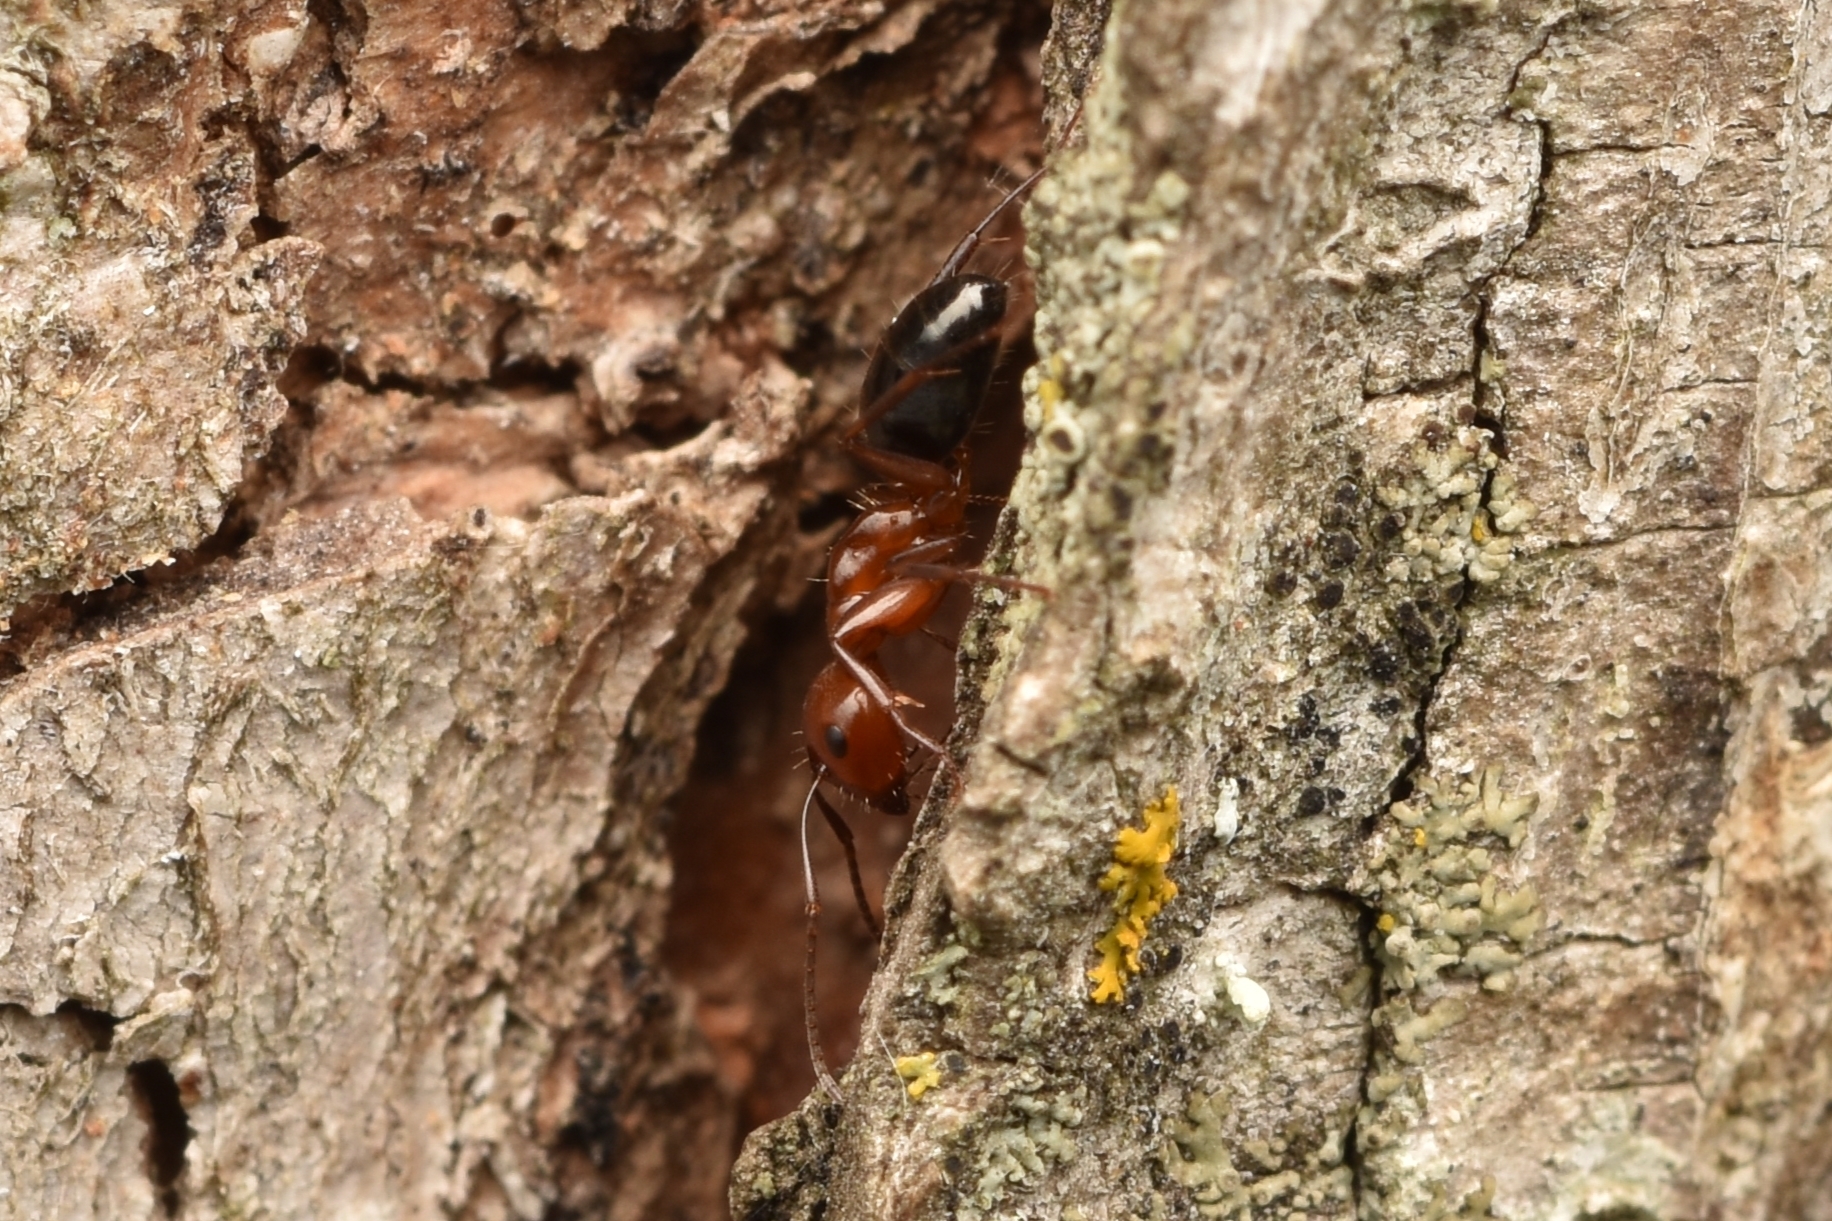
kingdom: Animalia
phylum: Arthropoda
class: Insecta
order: Hymenoptera
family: Formicidae
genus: Camponotus
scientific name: Camponotus discolor
